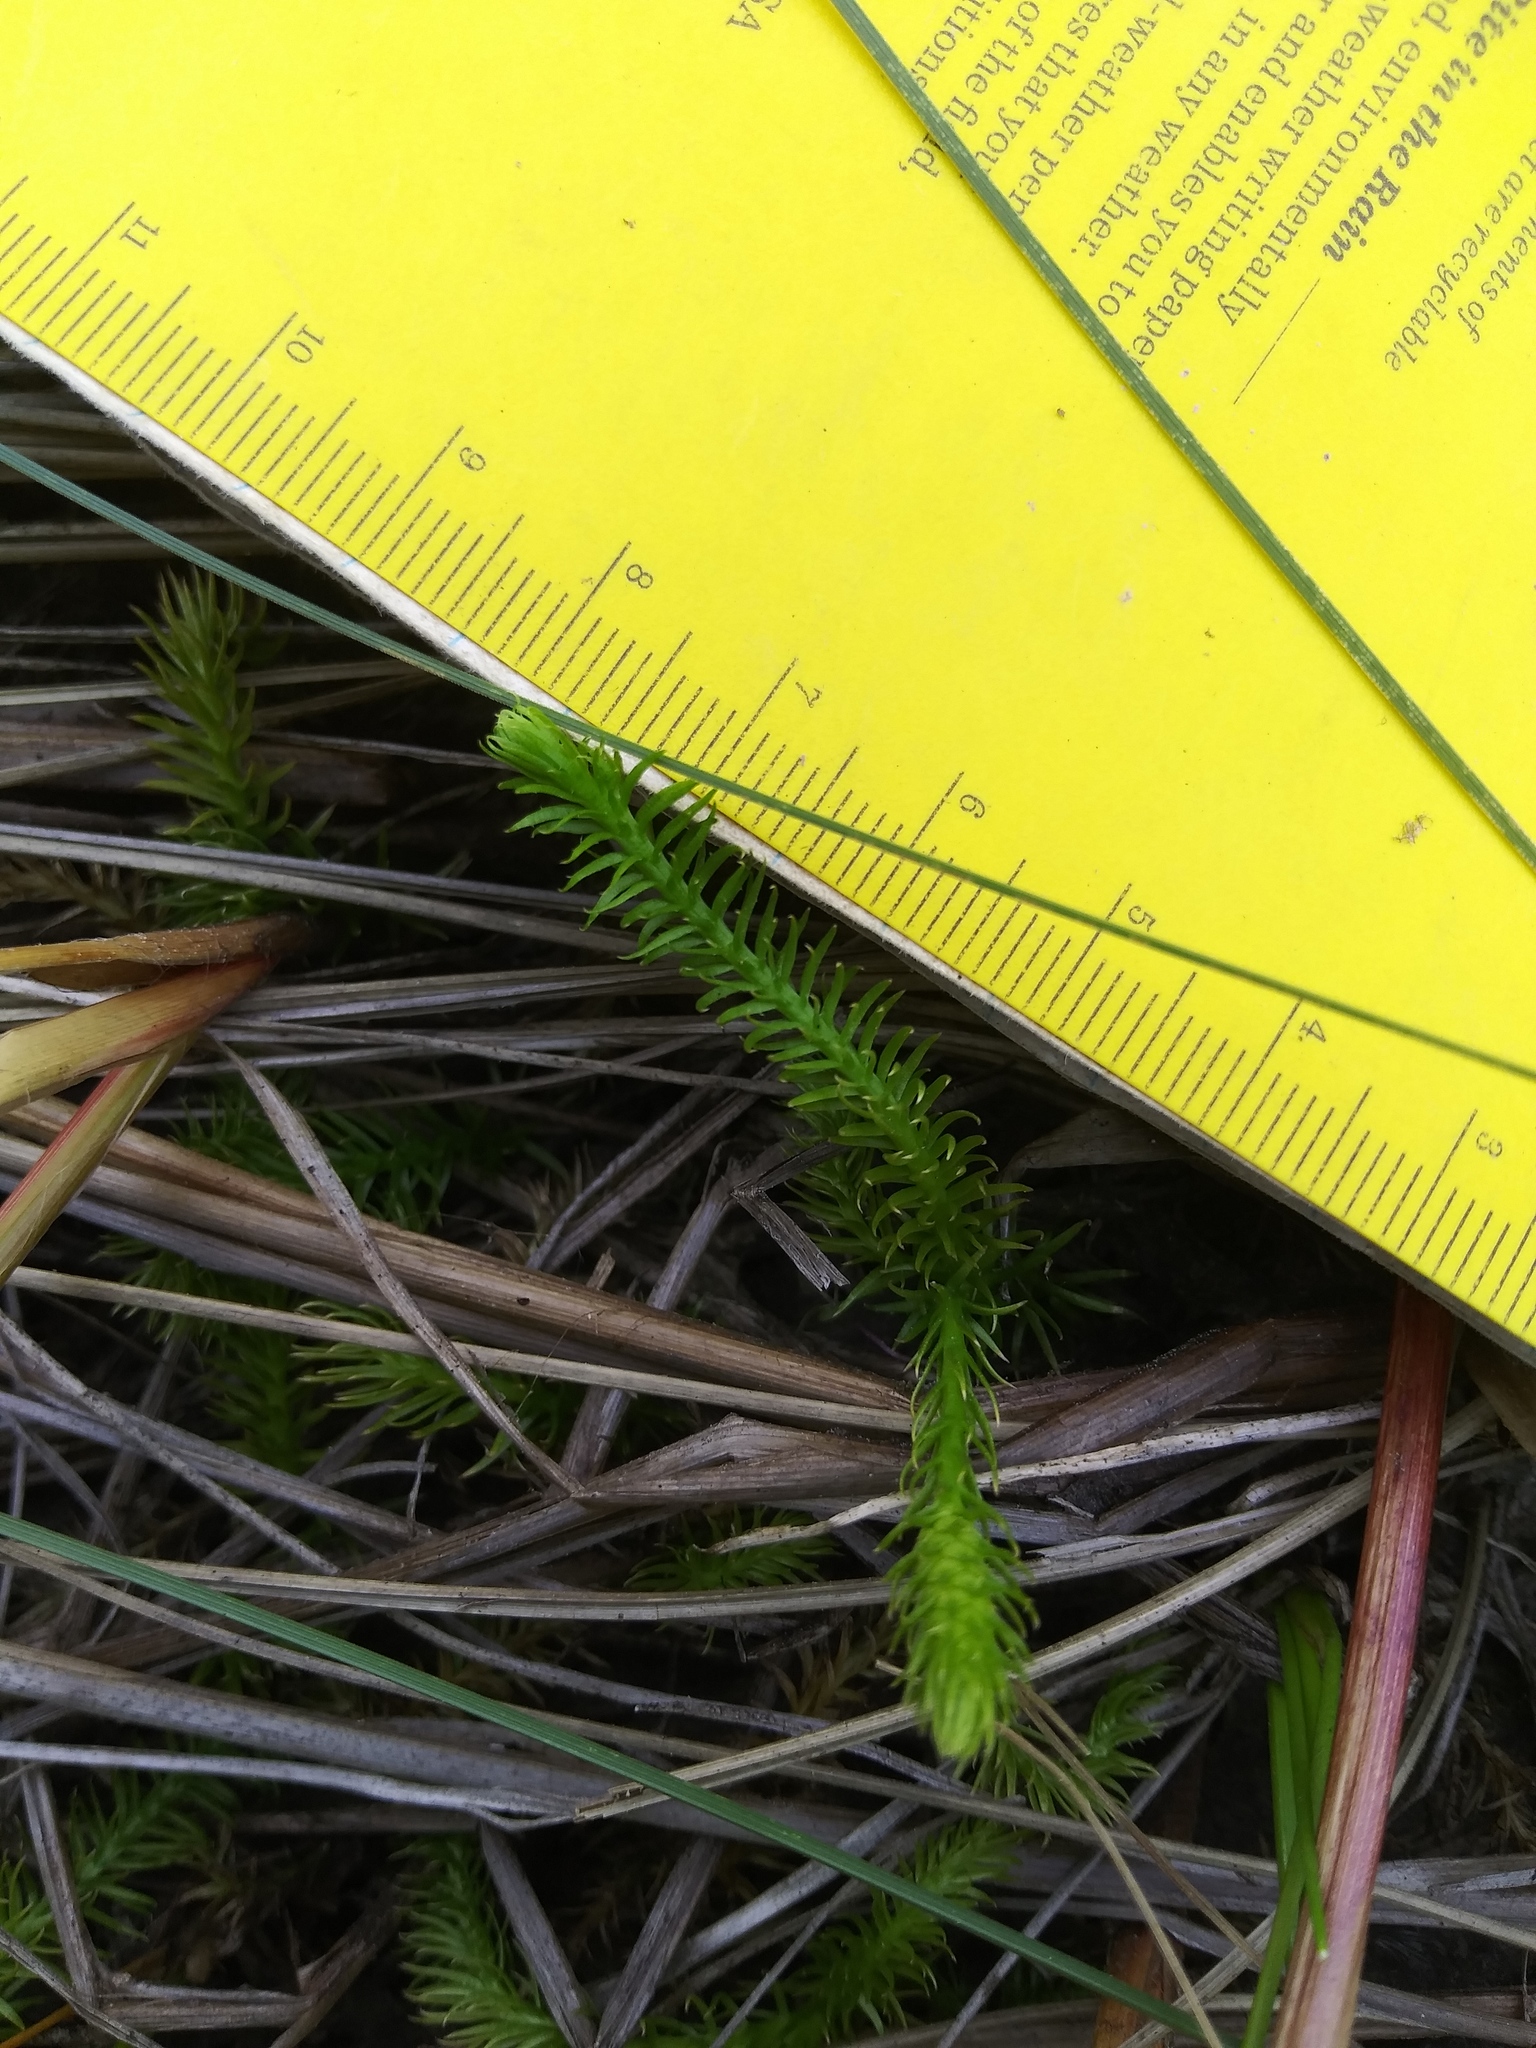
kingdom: Plantae
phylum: Tracheophyta
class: Lycopodiopsida
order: Lycopodiales
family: Lycopodiaceae
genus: Lycopodiella
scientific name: Lycopodiella inundata
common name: Marsh clubmoss
